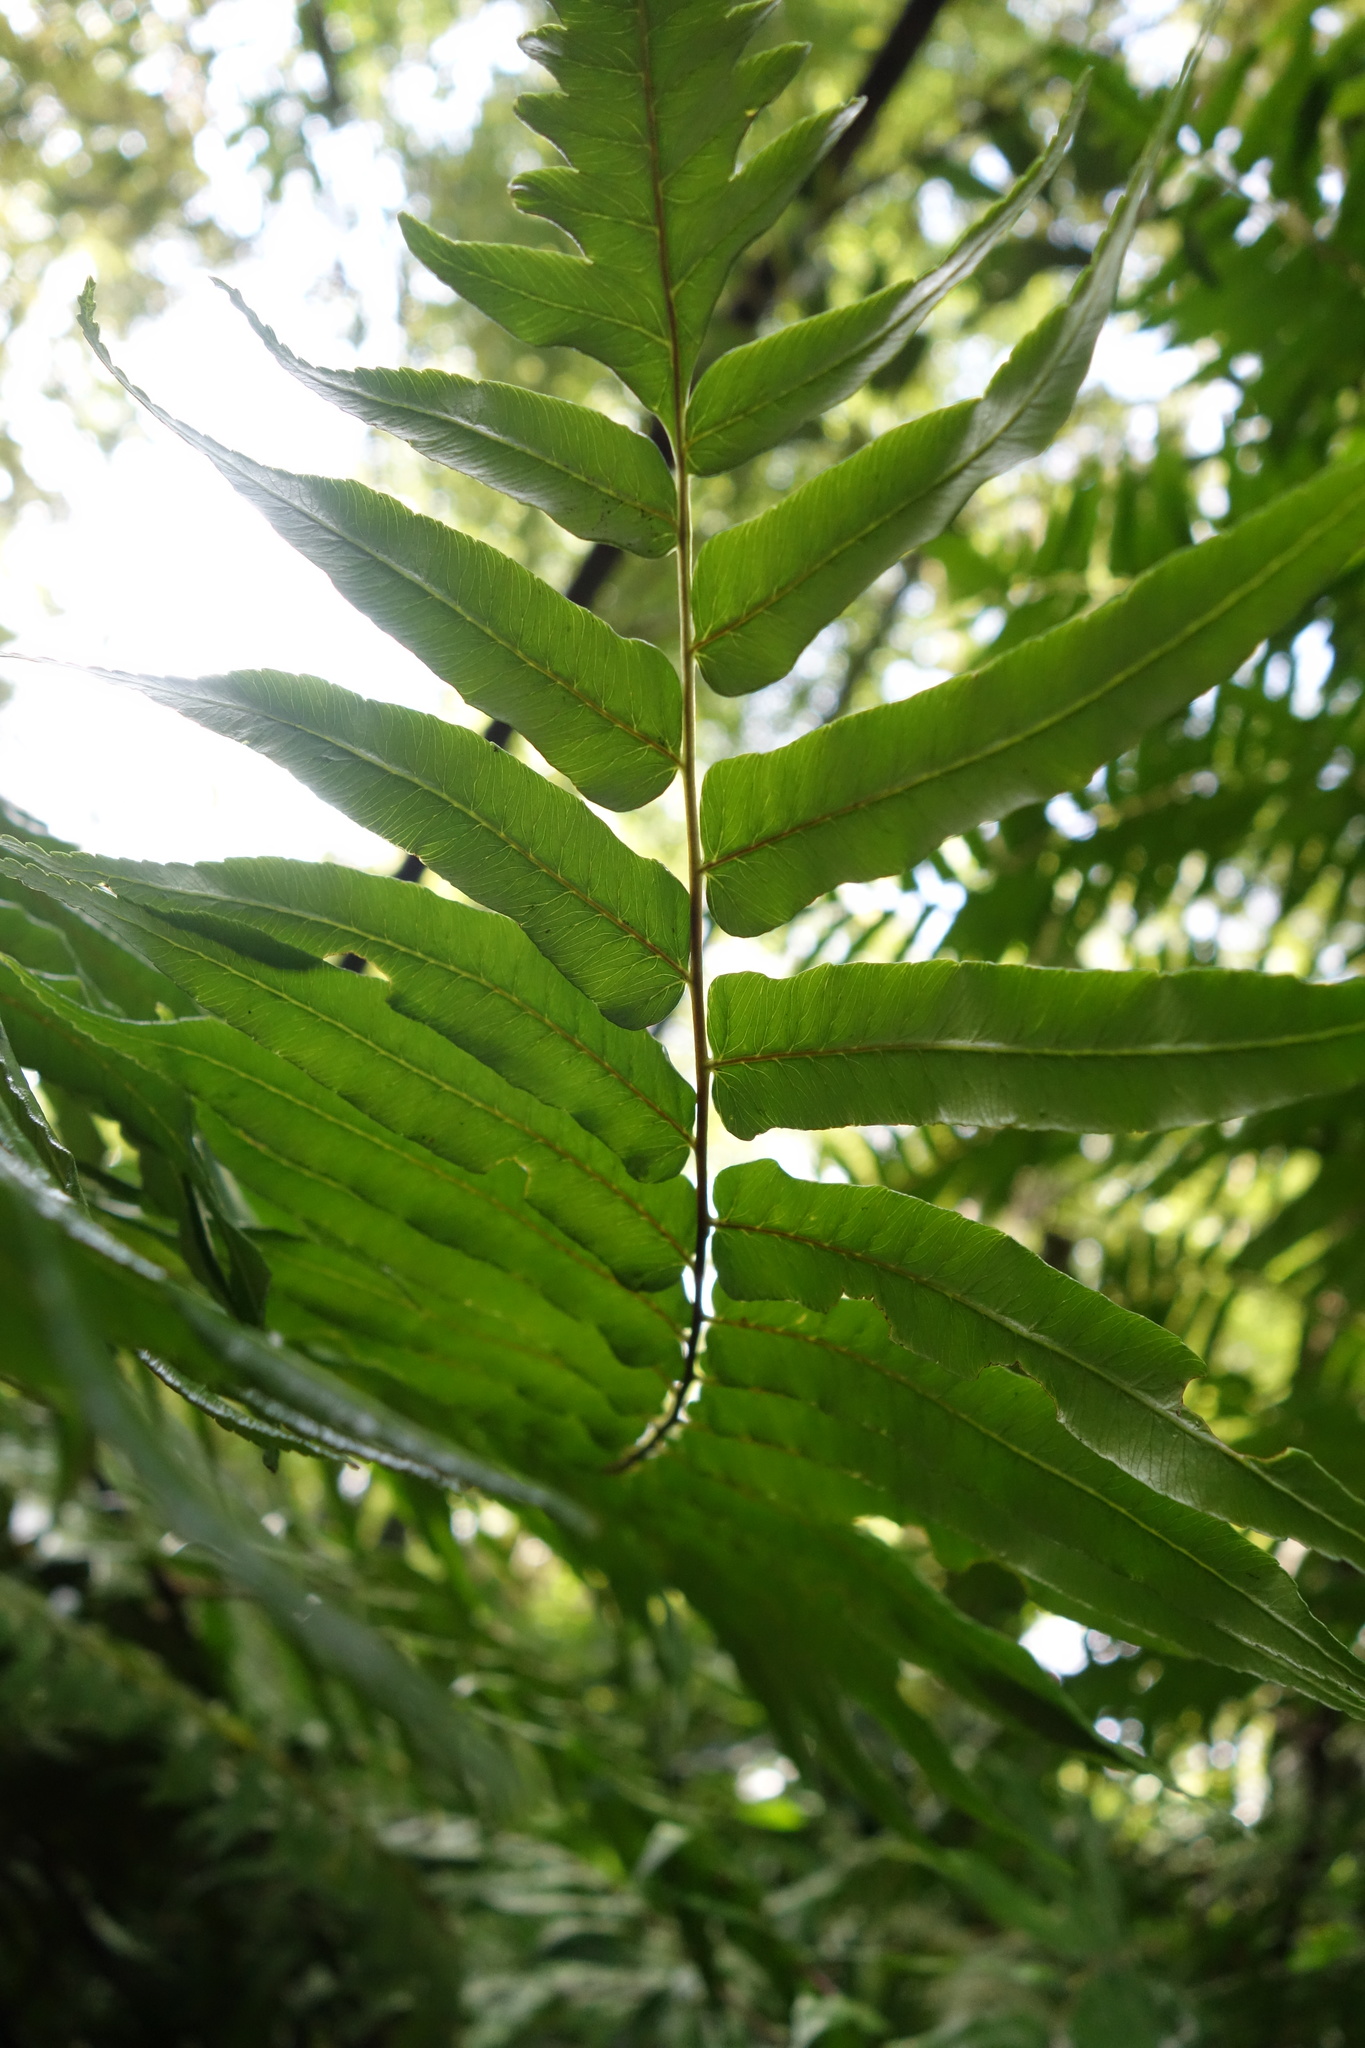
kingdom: Plantae
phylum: Tracheophyta
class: Polypodiopsida
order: Cyatheales
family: Cyatheaceae
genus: Gymnosphaera
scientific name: Gymnosphaera podophylla
